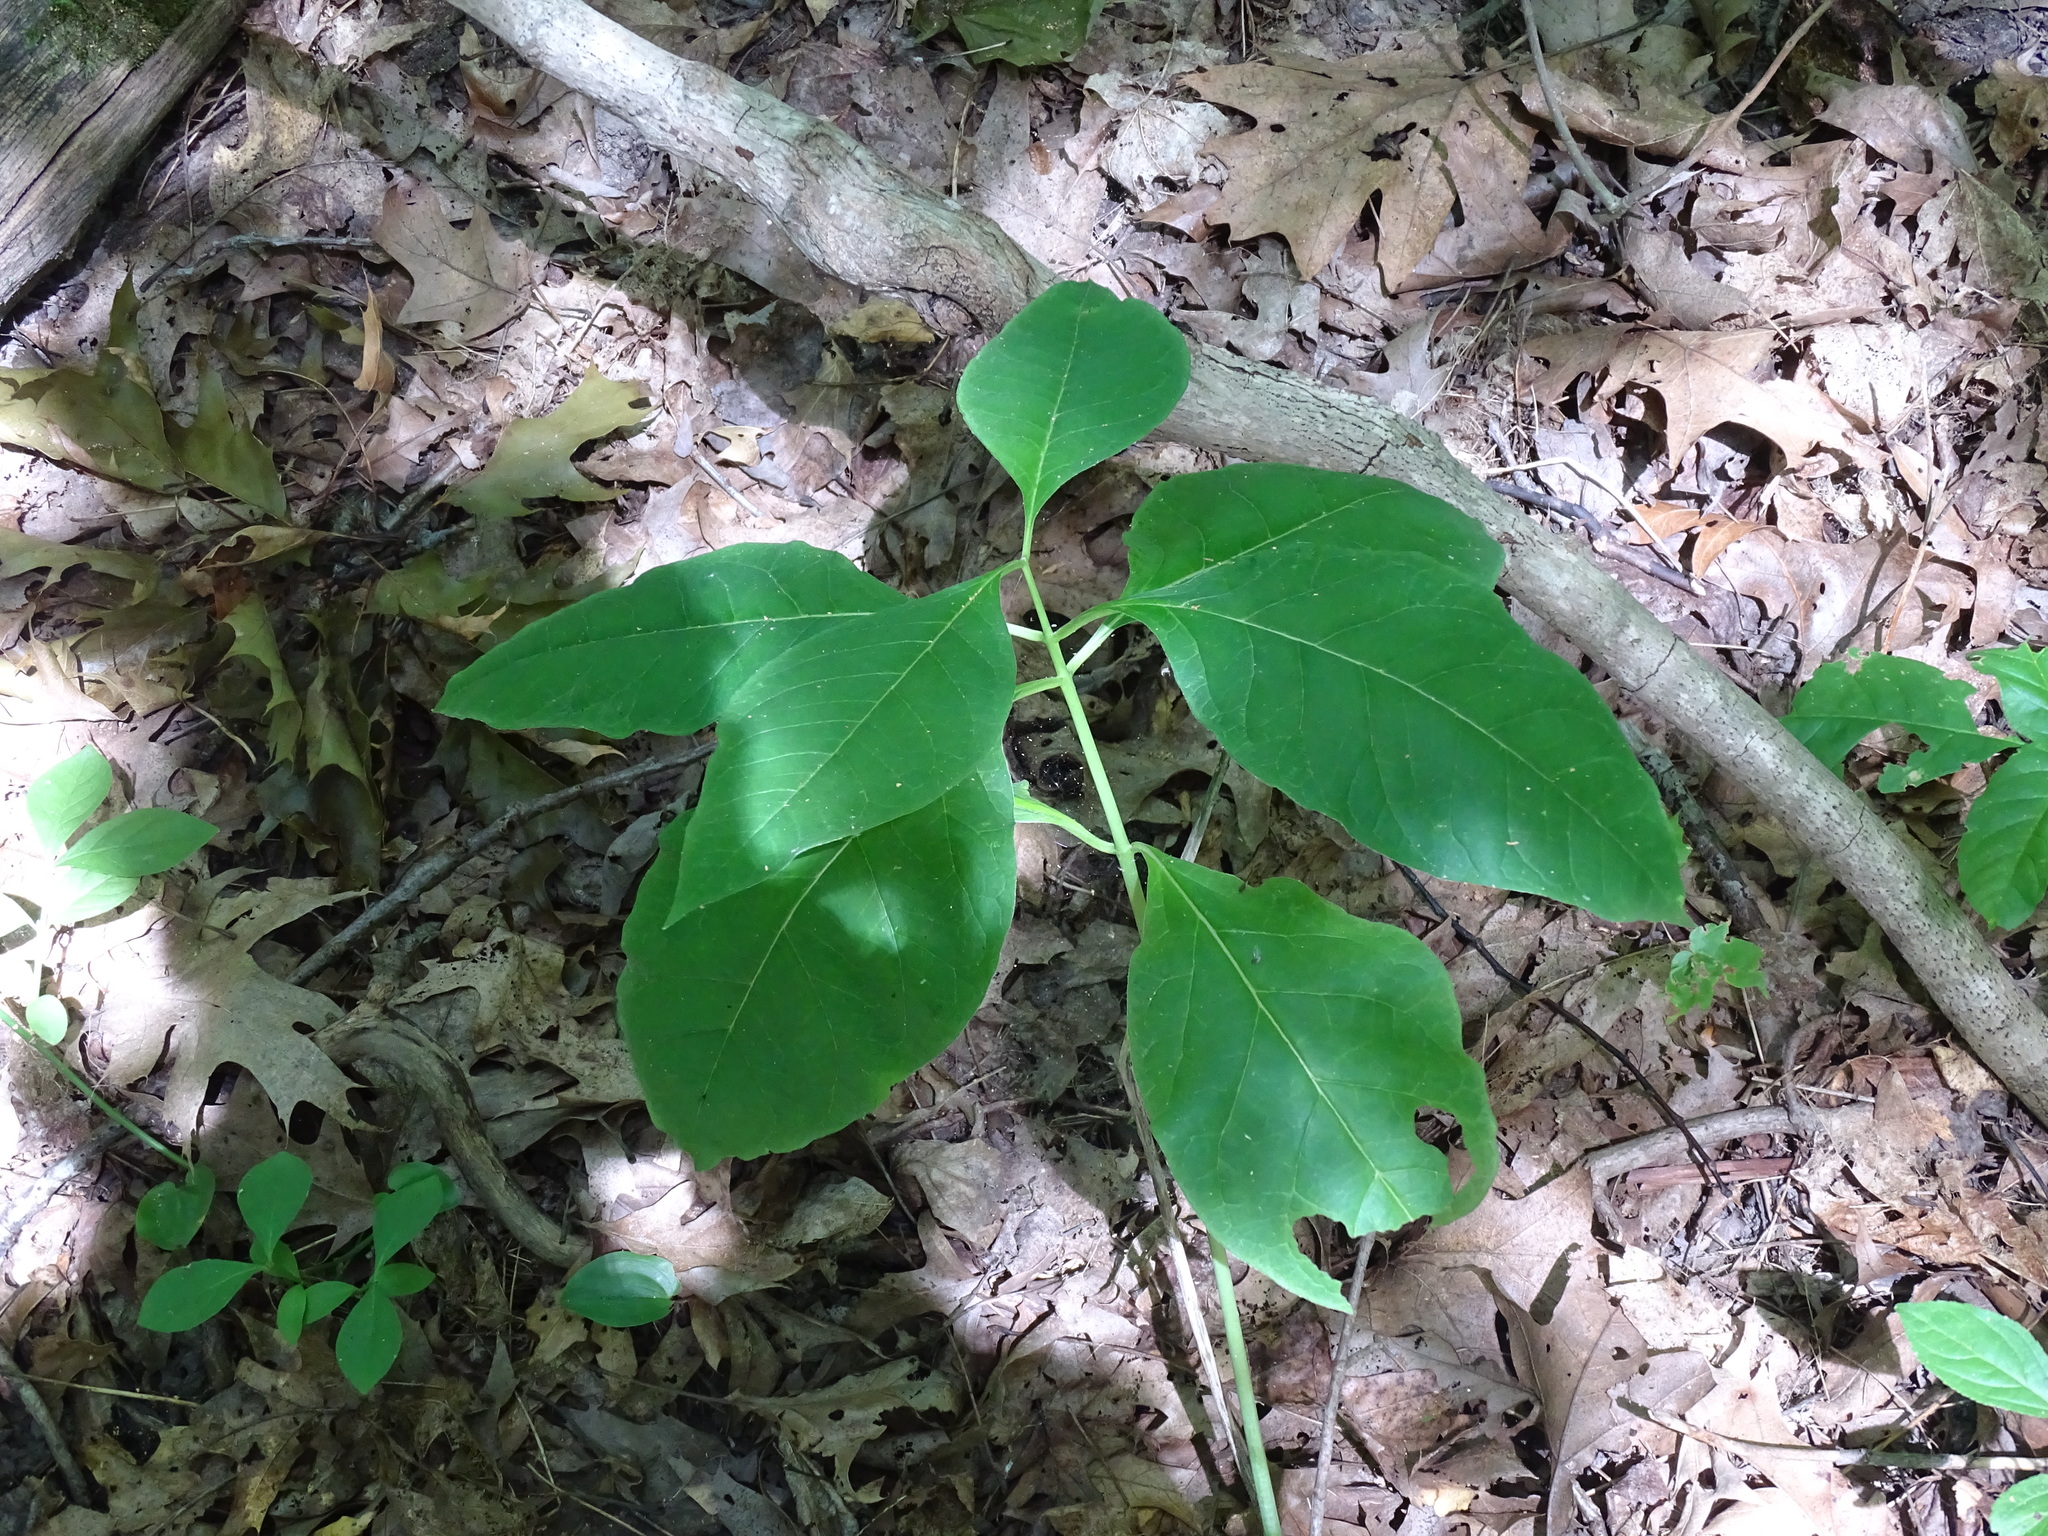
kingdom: Plantae
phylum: Tracheophyta
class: Magnoliopsida
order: Gentianales
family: Apocynaceae
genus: Asclepias
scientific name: Asclepias exaltata
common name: Poke milkweed
